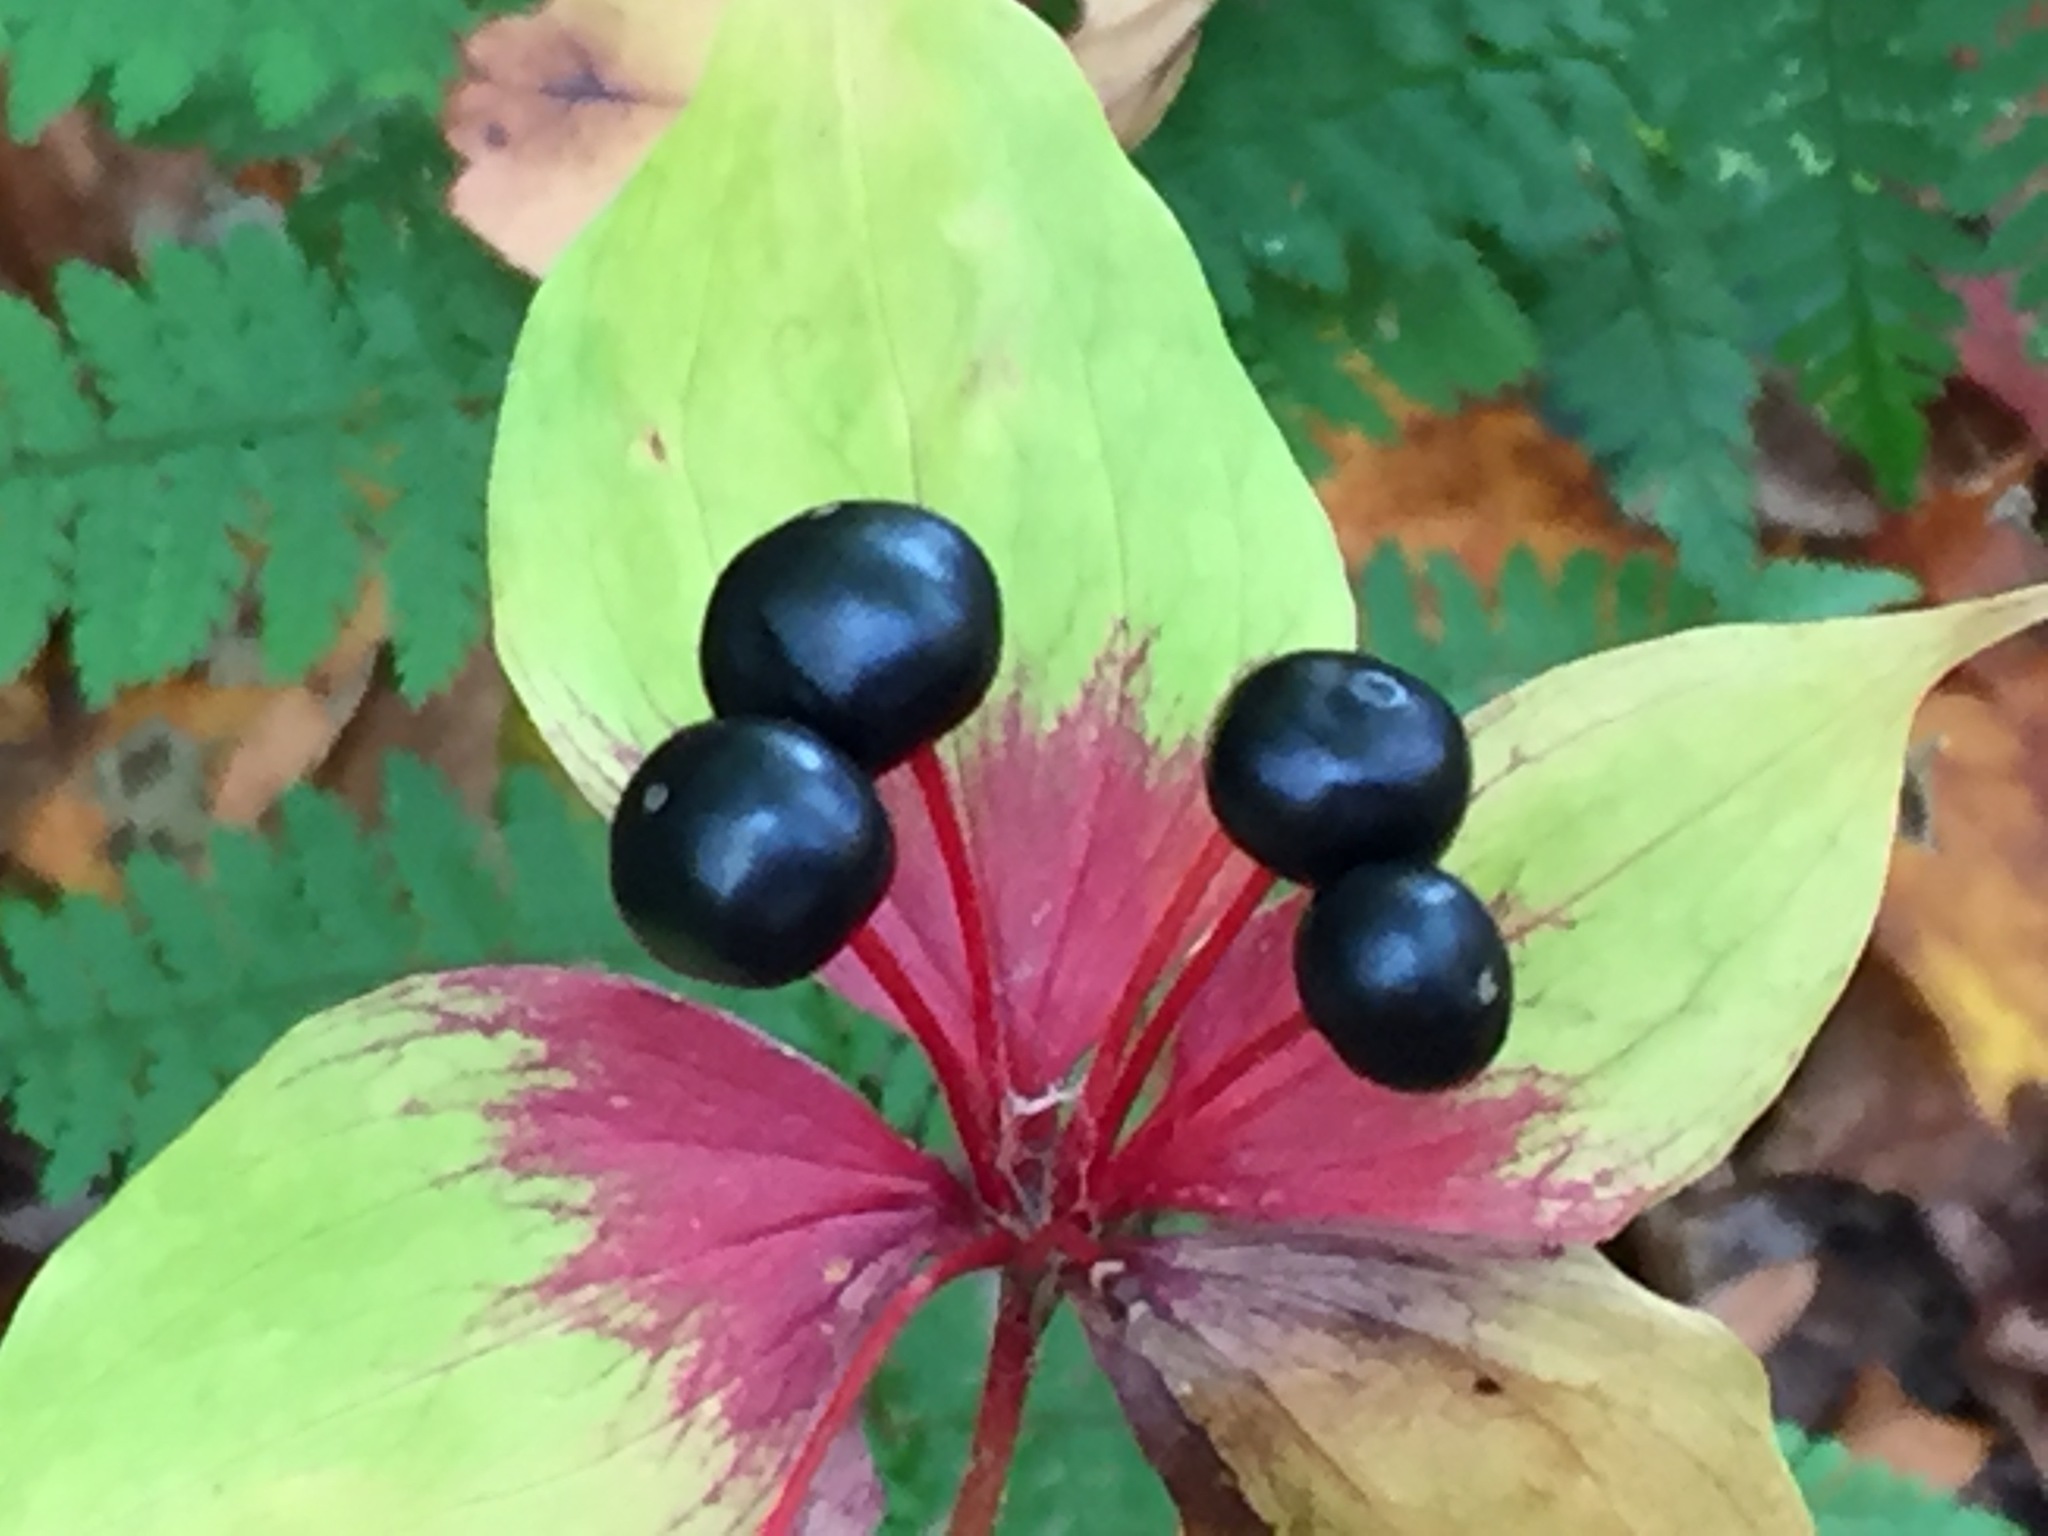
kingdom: Plantae
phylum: Tracheophyta
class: Liliopsida
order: Liliales
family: Liliaceae
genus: Medeola
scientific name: Medeola virginiana
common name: Indian cucumber-root
